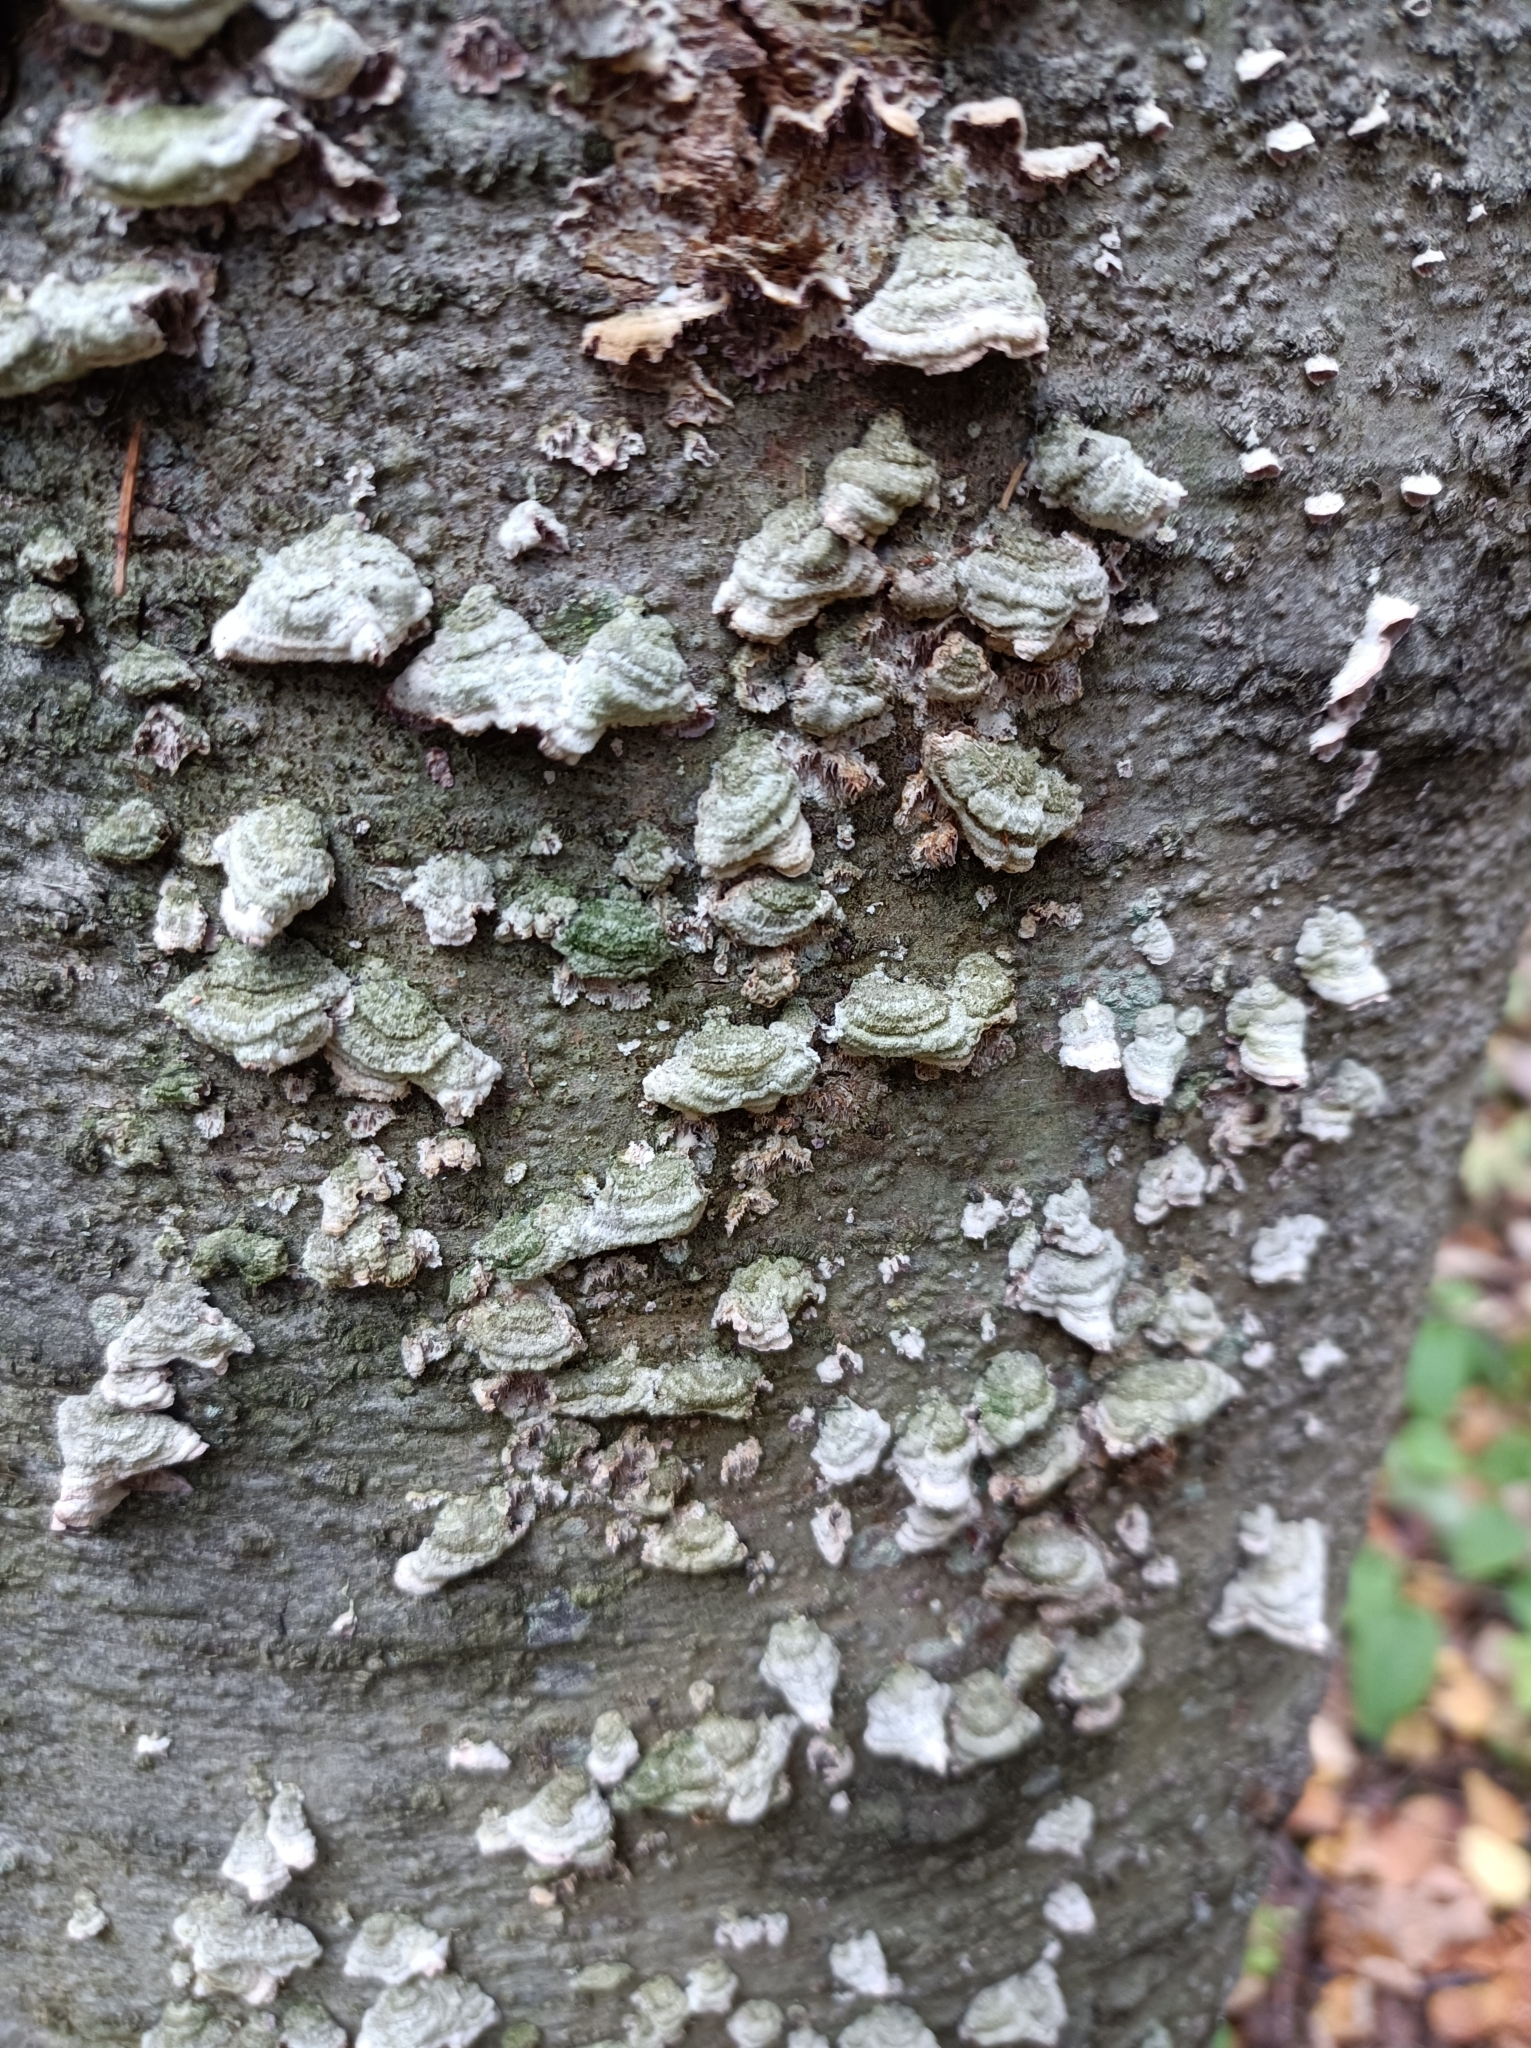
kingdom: Fungi
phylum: Basidiomycota
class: Agaricomycetes
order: Hymenochaetales
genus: Trichaptum
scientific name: Trichaptum abietinum
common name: Purplepore bracket
